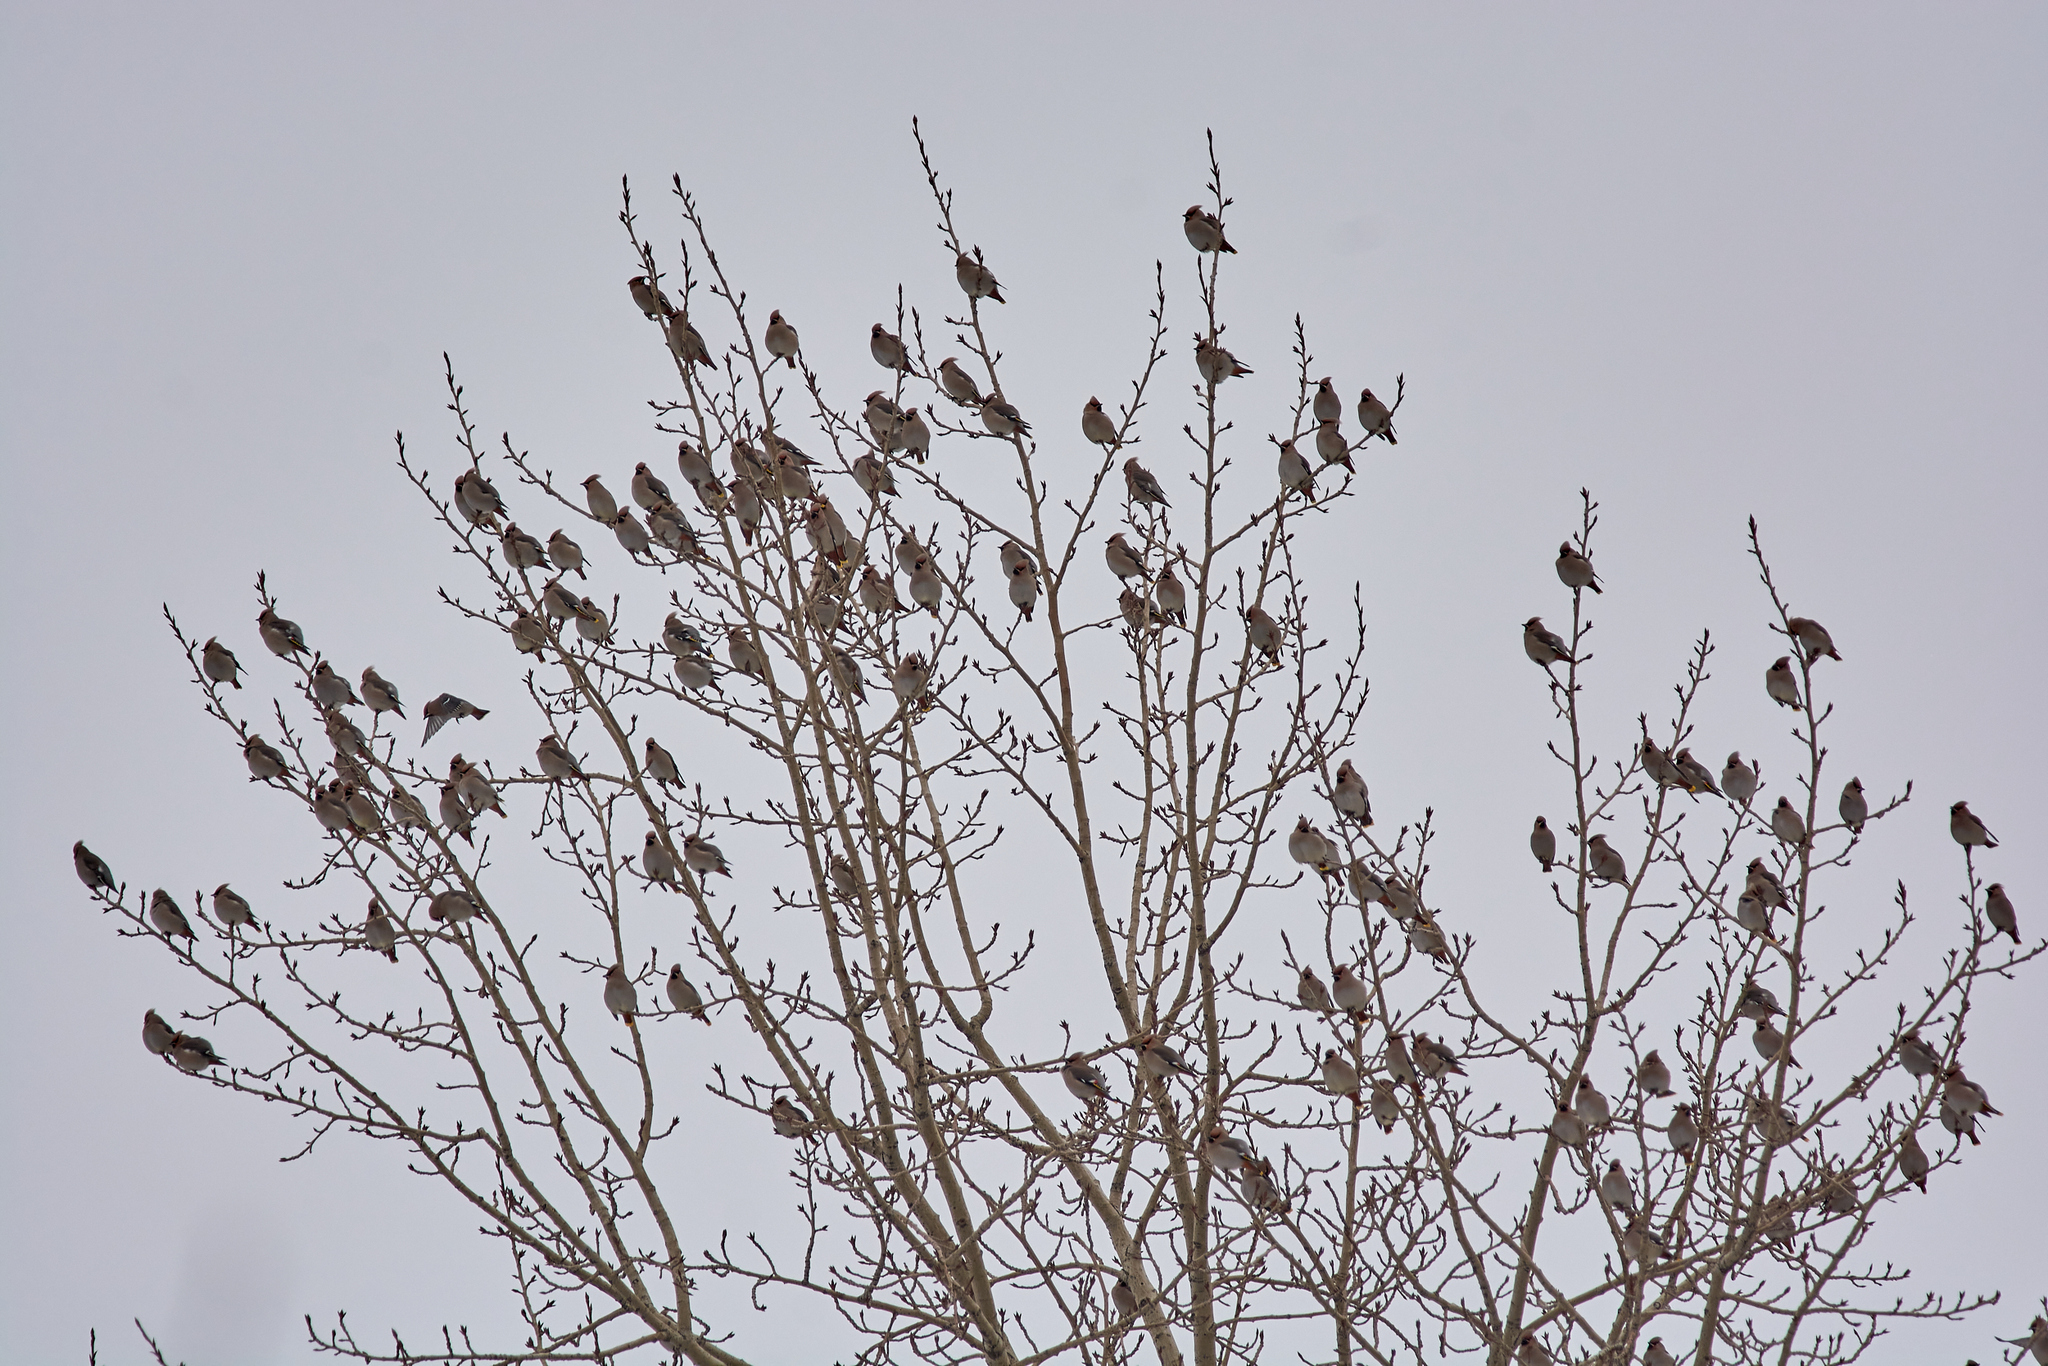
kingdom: Animalia
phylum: Chordata
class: Aves
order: Passeriformes
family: Bombycillidae
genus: Bombycilla
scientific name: Bombycilla garrulus
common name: Bohemian waxwing
